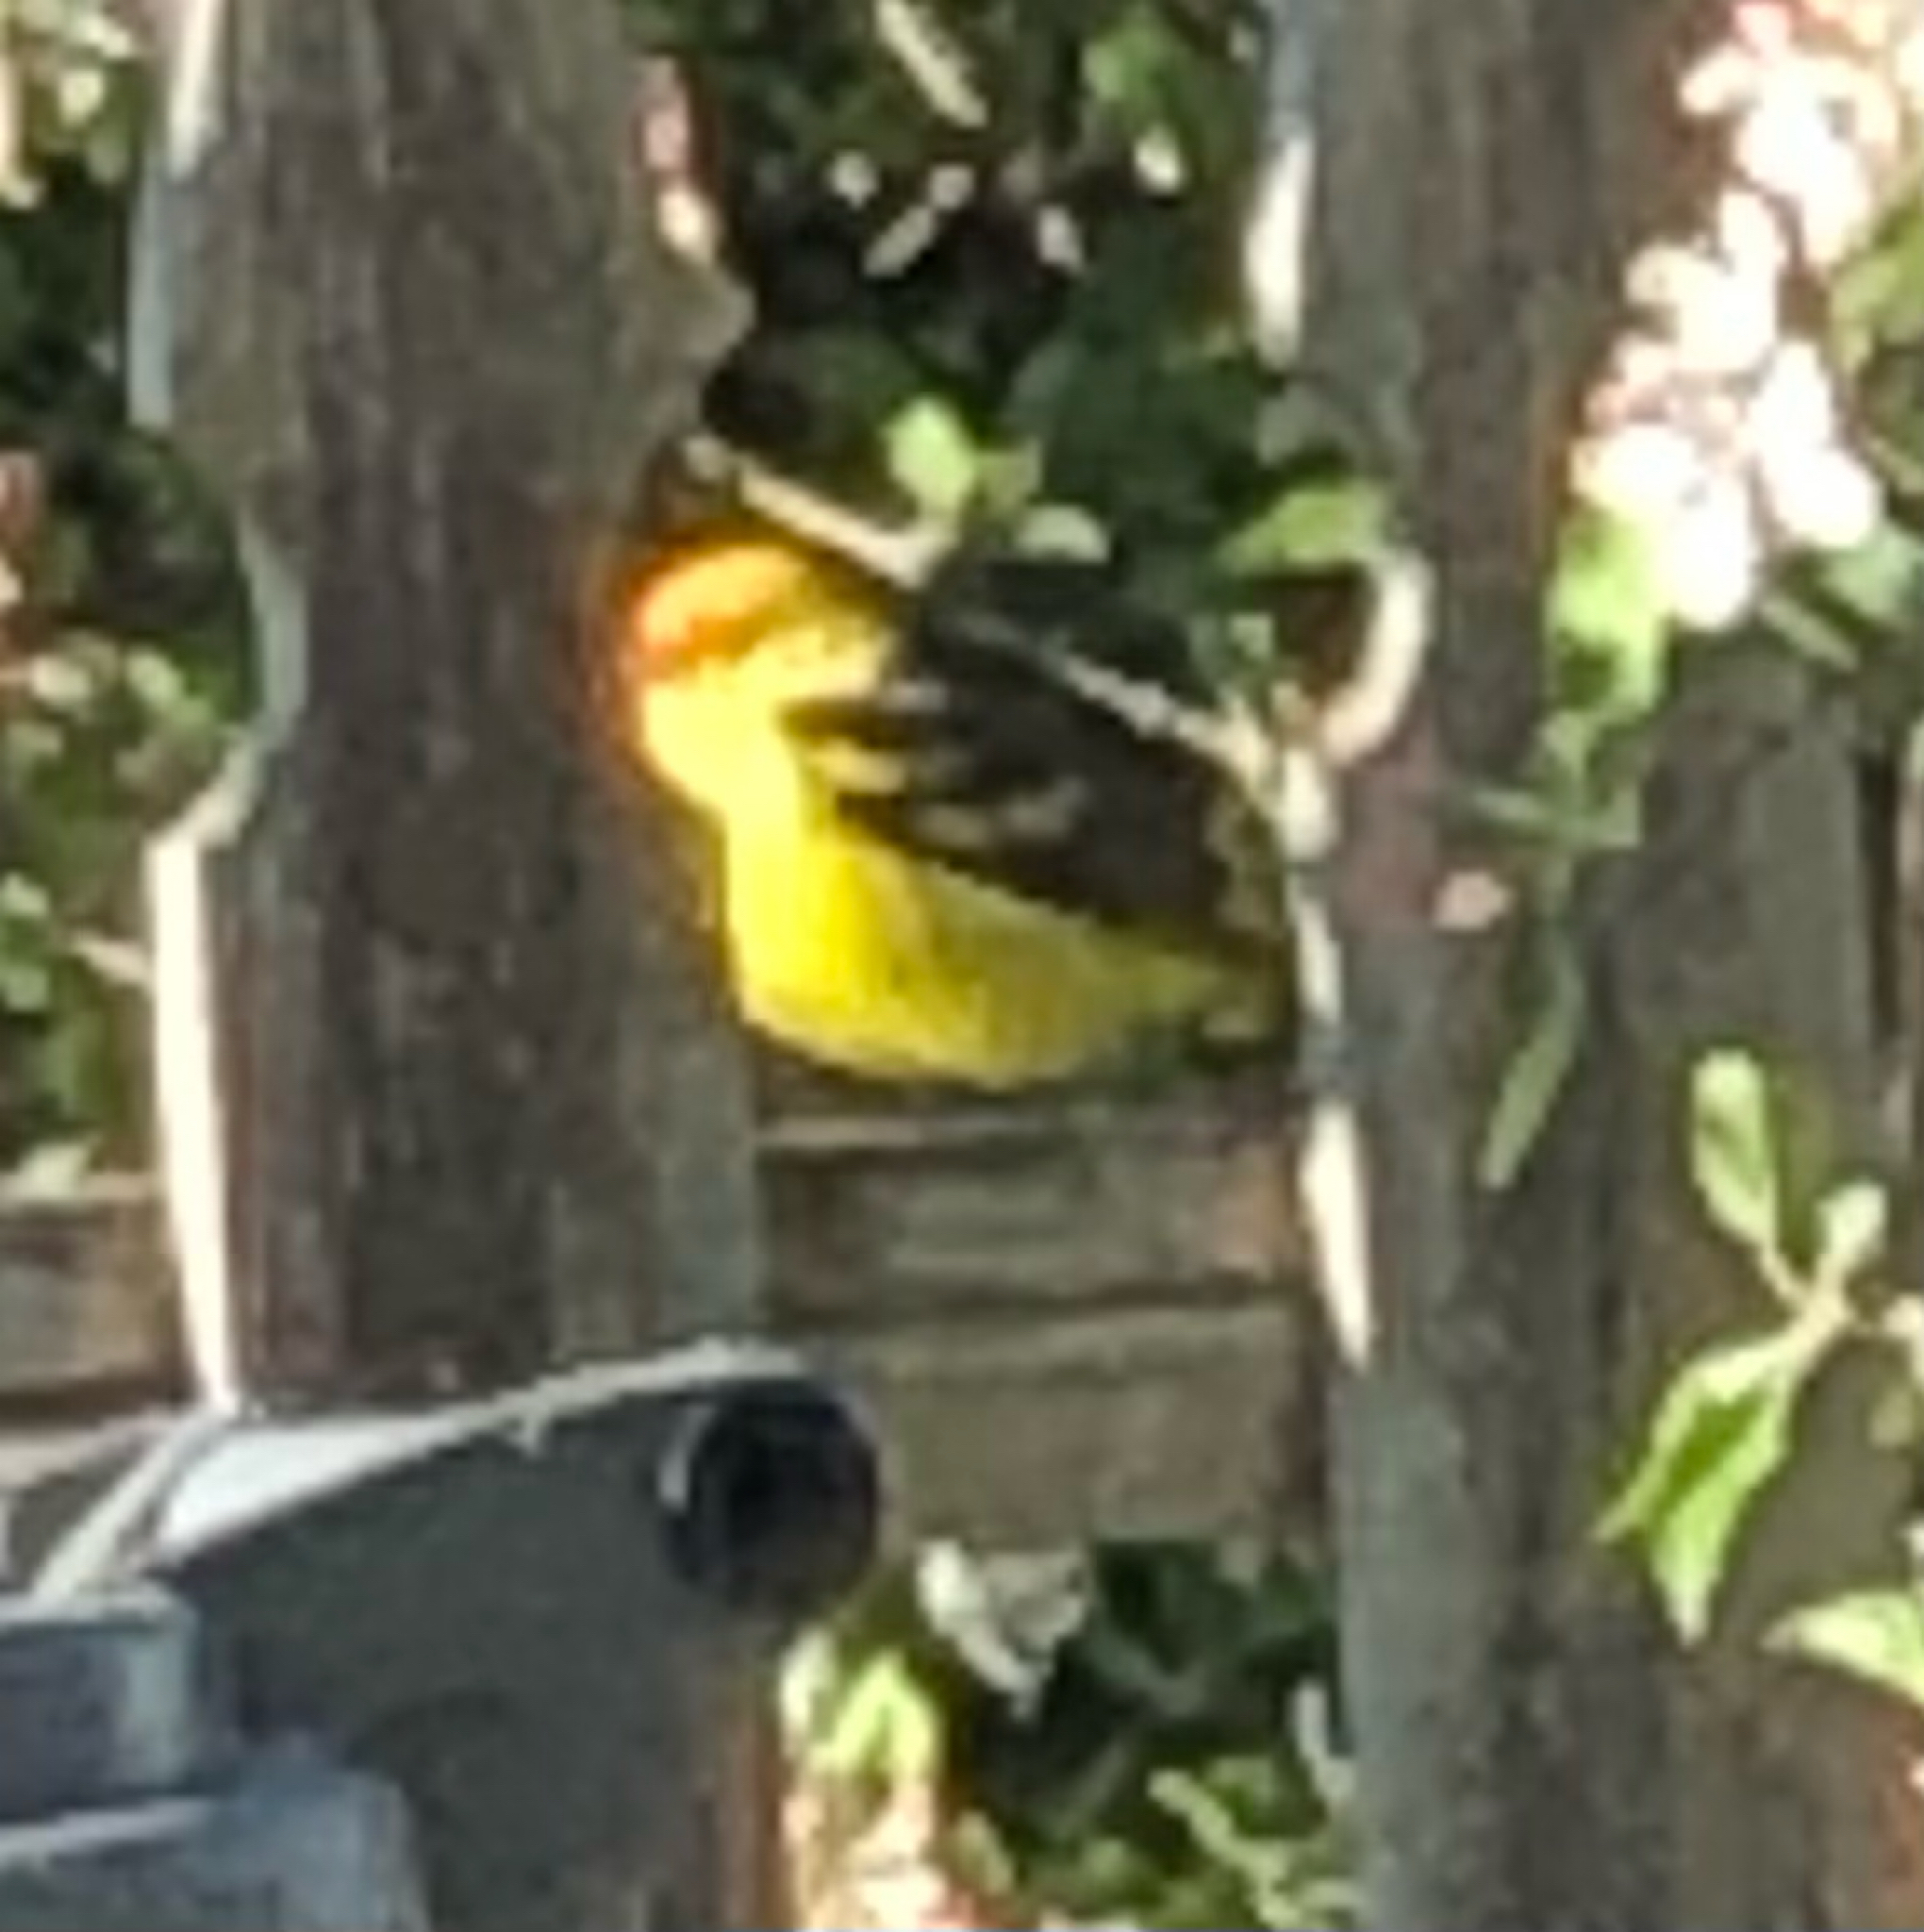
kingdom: Animalia
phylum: Chordata
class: Aves
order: Passeriformes
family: Cardinalidae
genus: Piranga
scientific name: Piranga ludoviciana
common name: Western tanager
